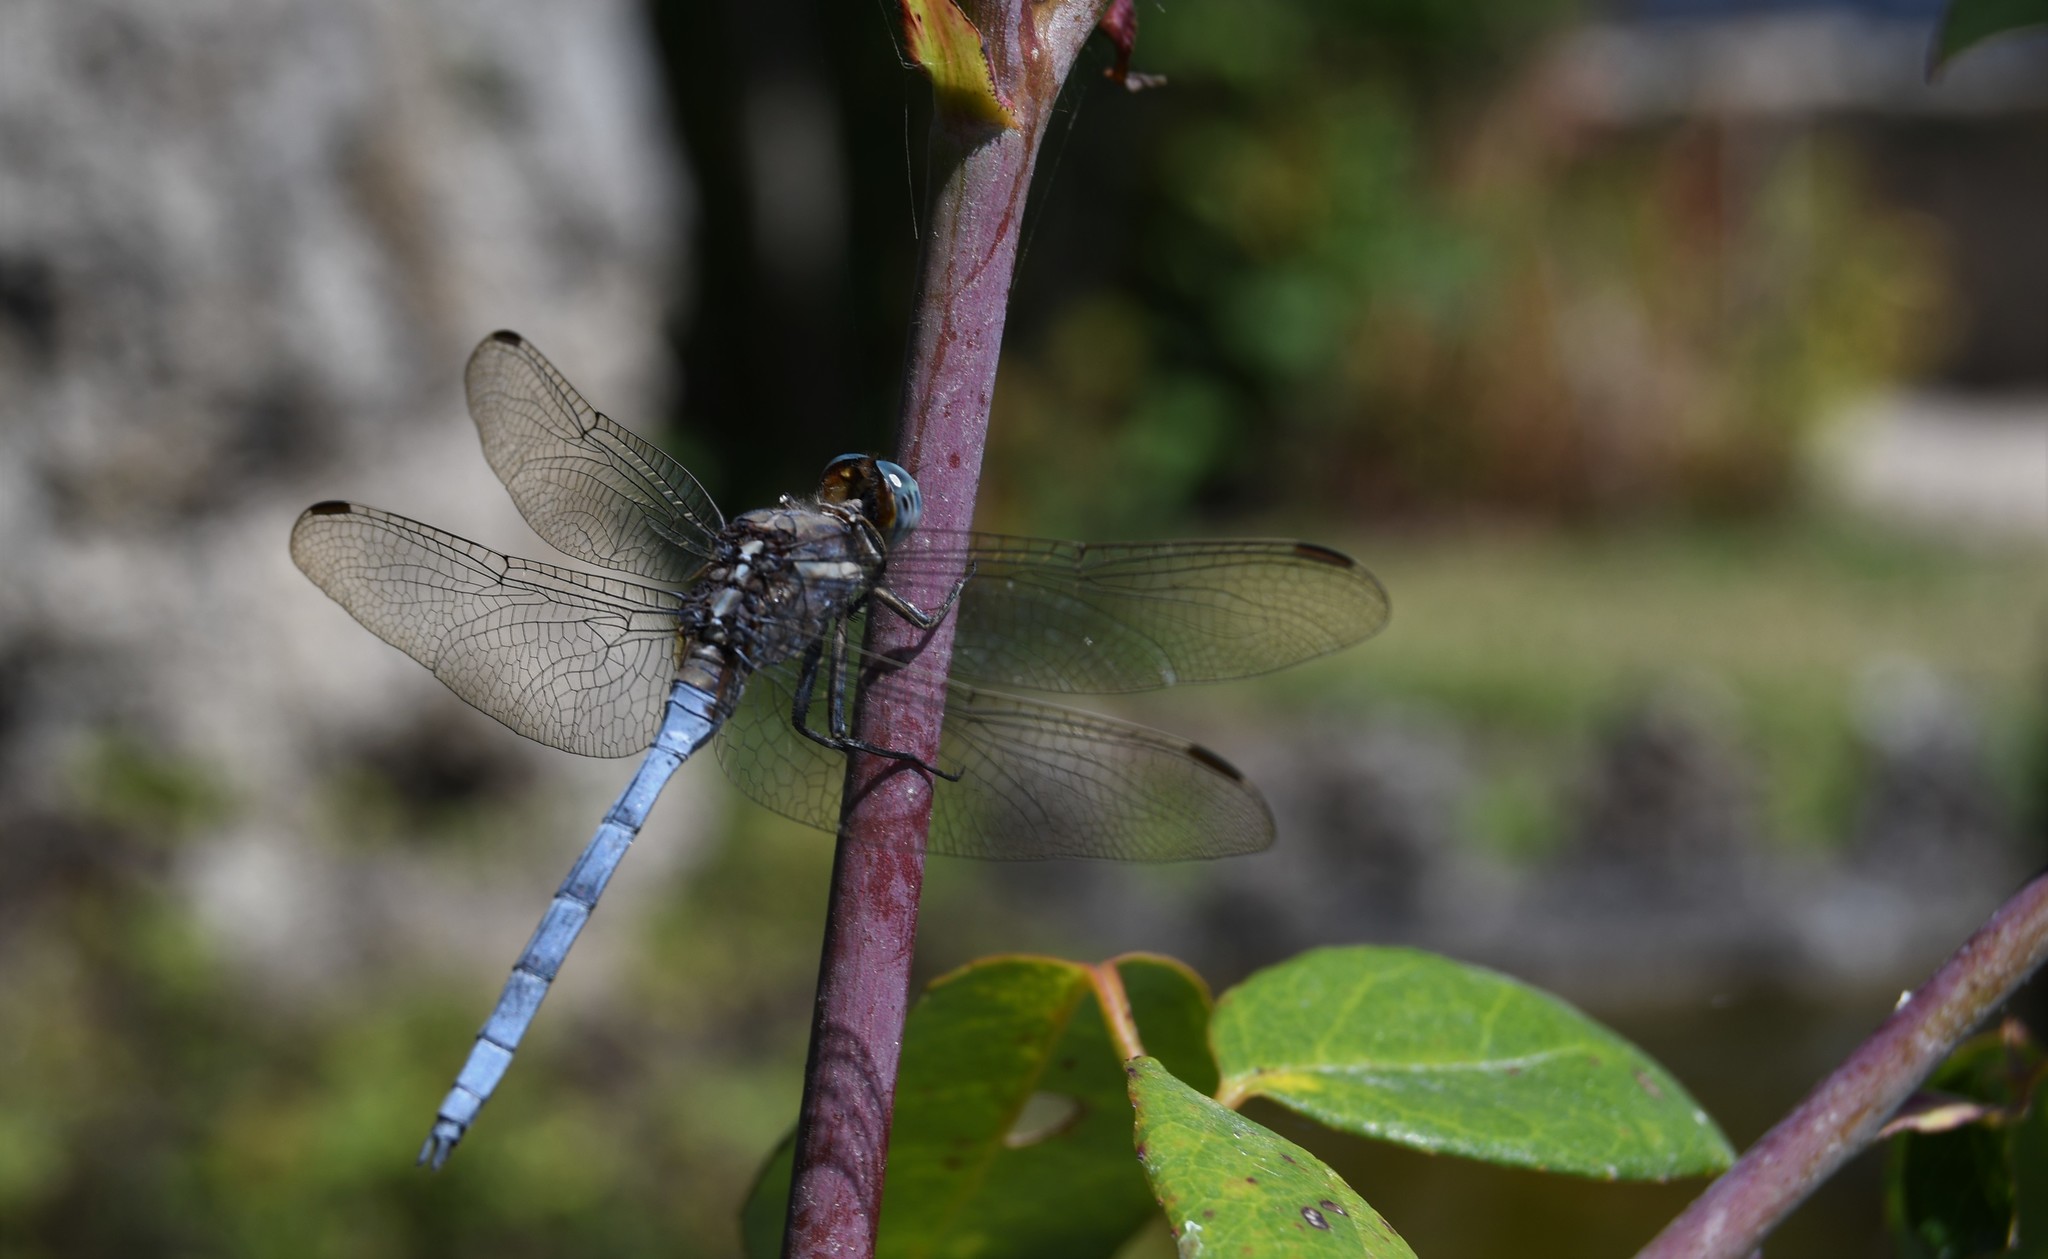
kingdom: Animalia
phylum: Arthropoda
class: Insecta
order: Odonata
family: Libellulidae
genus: Orthetrum
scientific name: Orthetrum chrysostigma
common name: Epaulet skimmer
